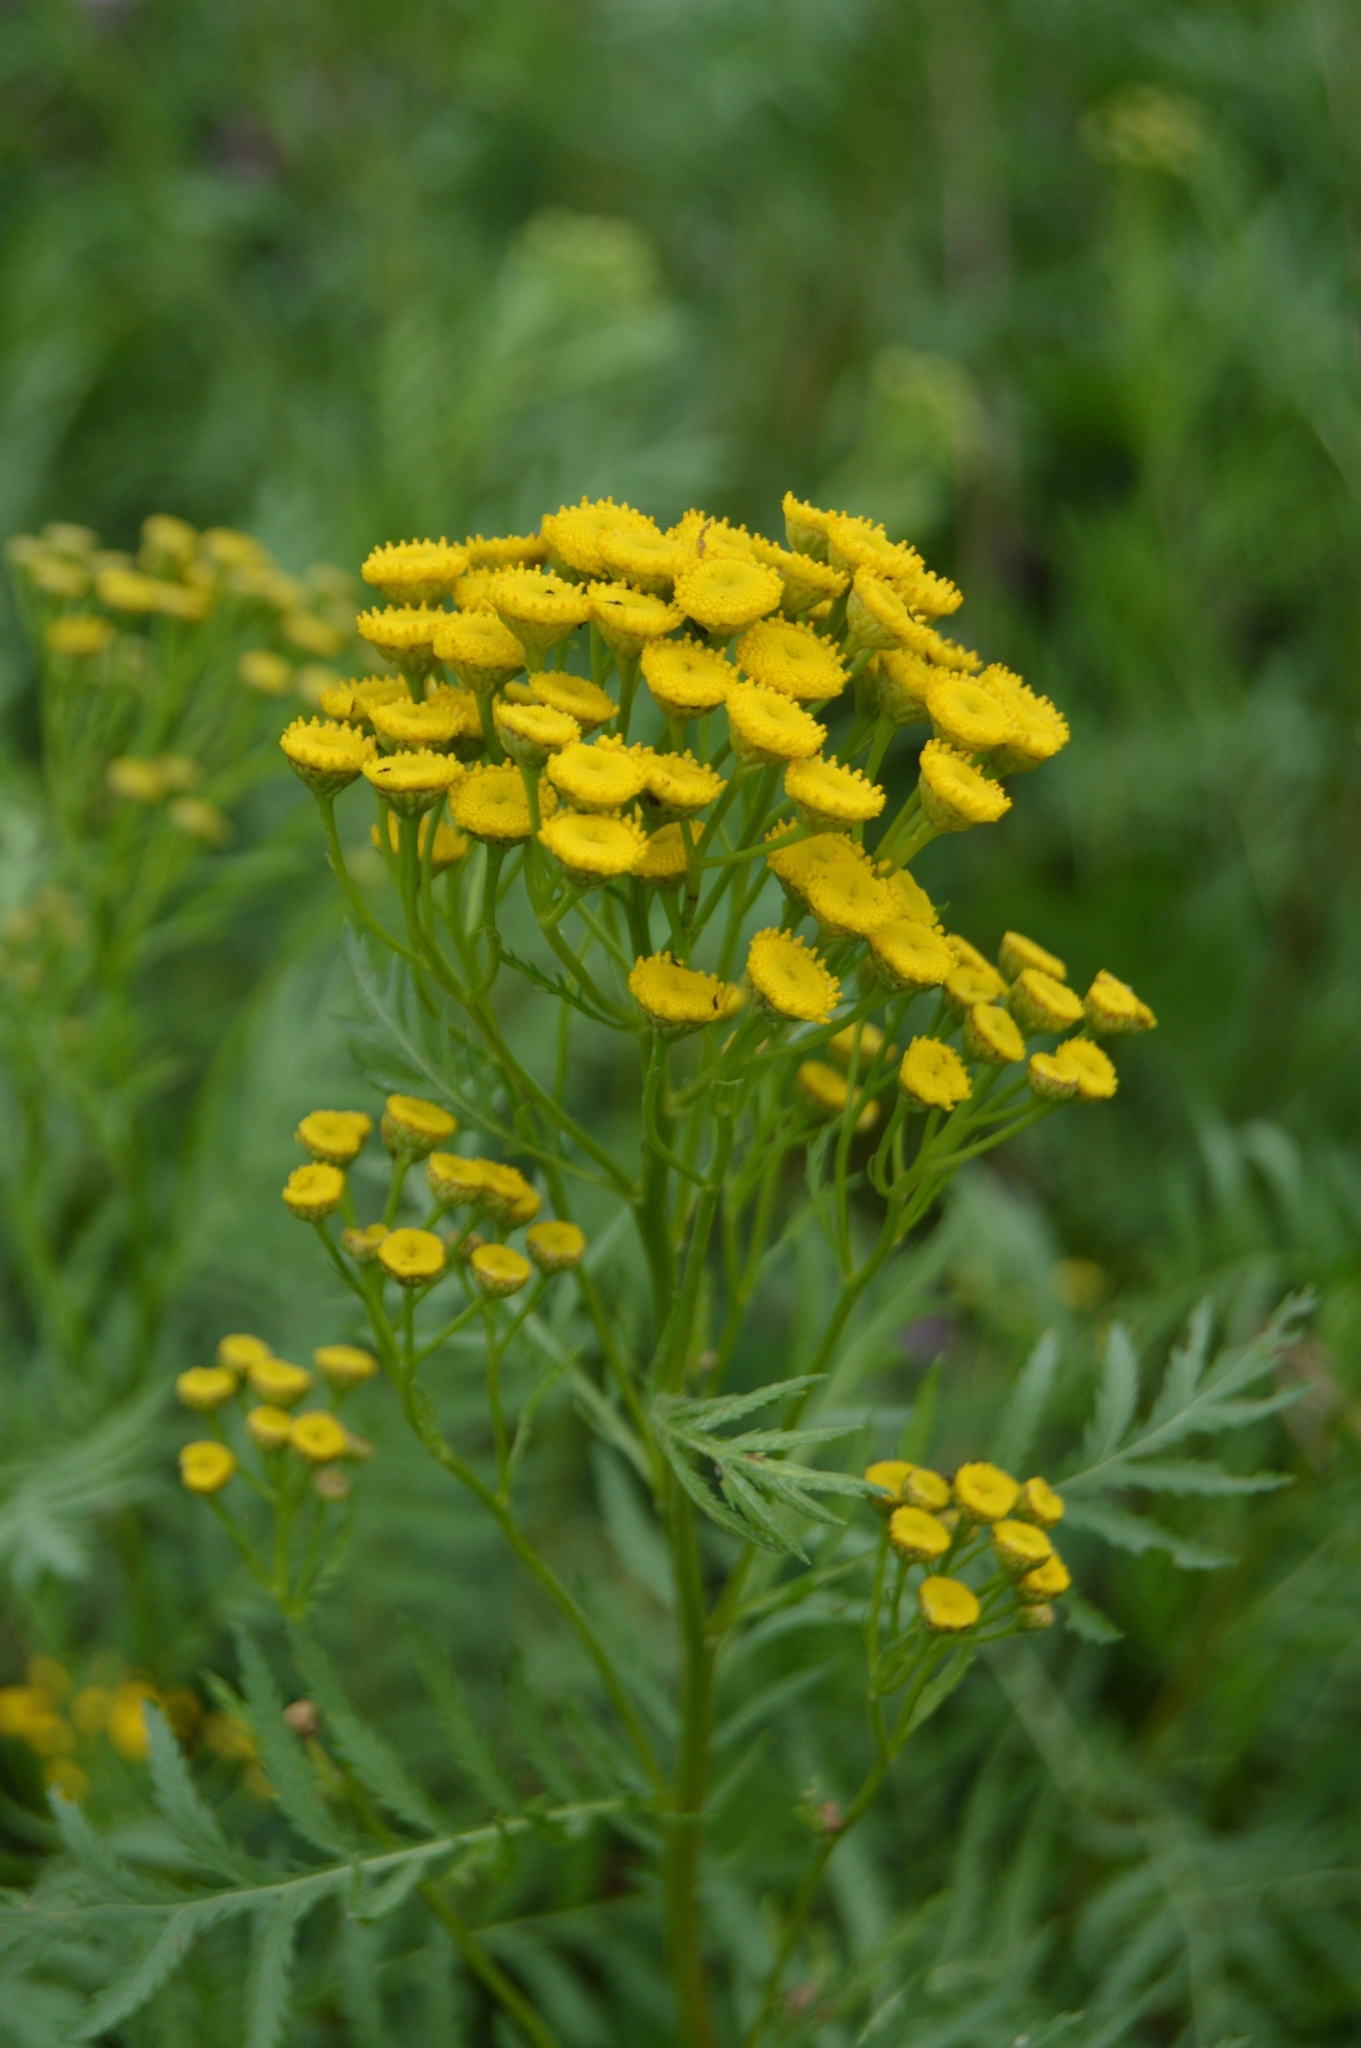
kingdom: Plantae
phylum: Tracheophyta
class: Magnoliopsida
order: Asterales
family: Asteraceae
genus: Tanacetum
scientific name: Tanacetum vulgare
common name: Common tansy
